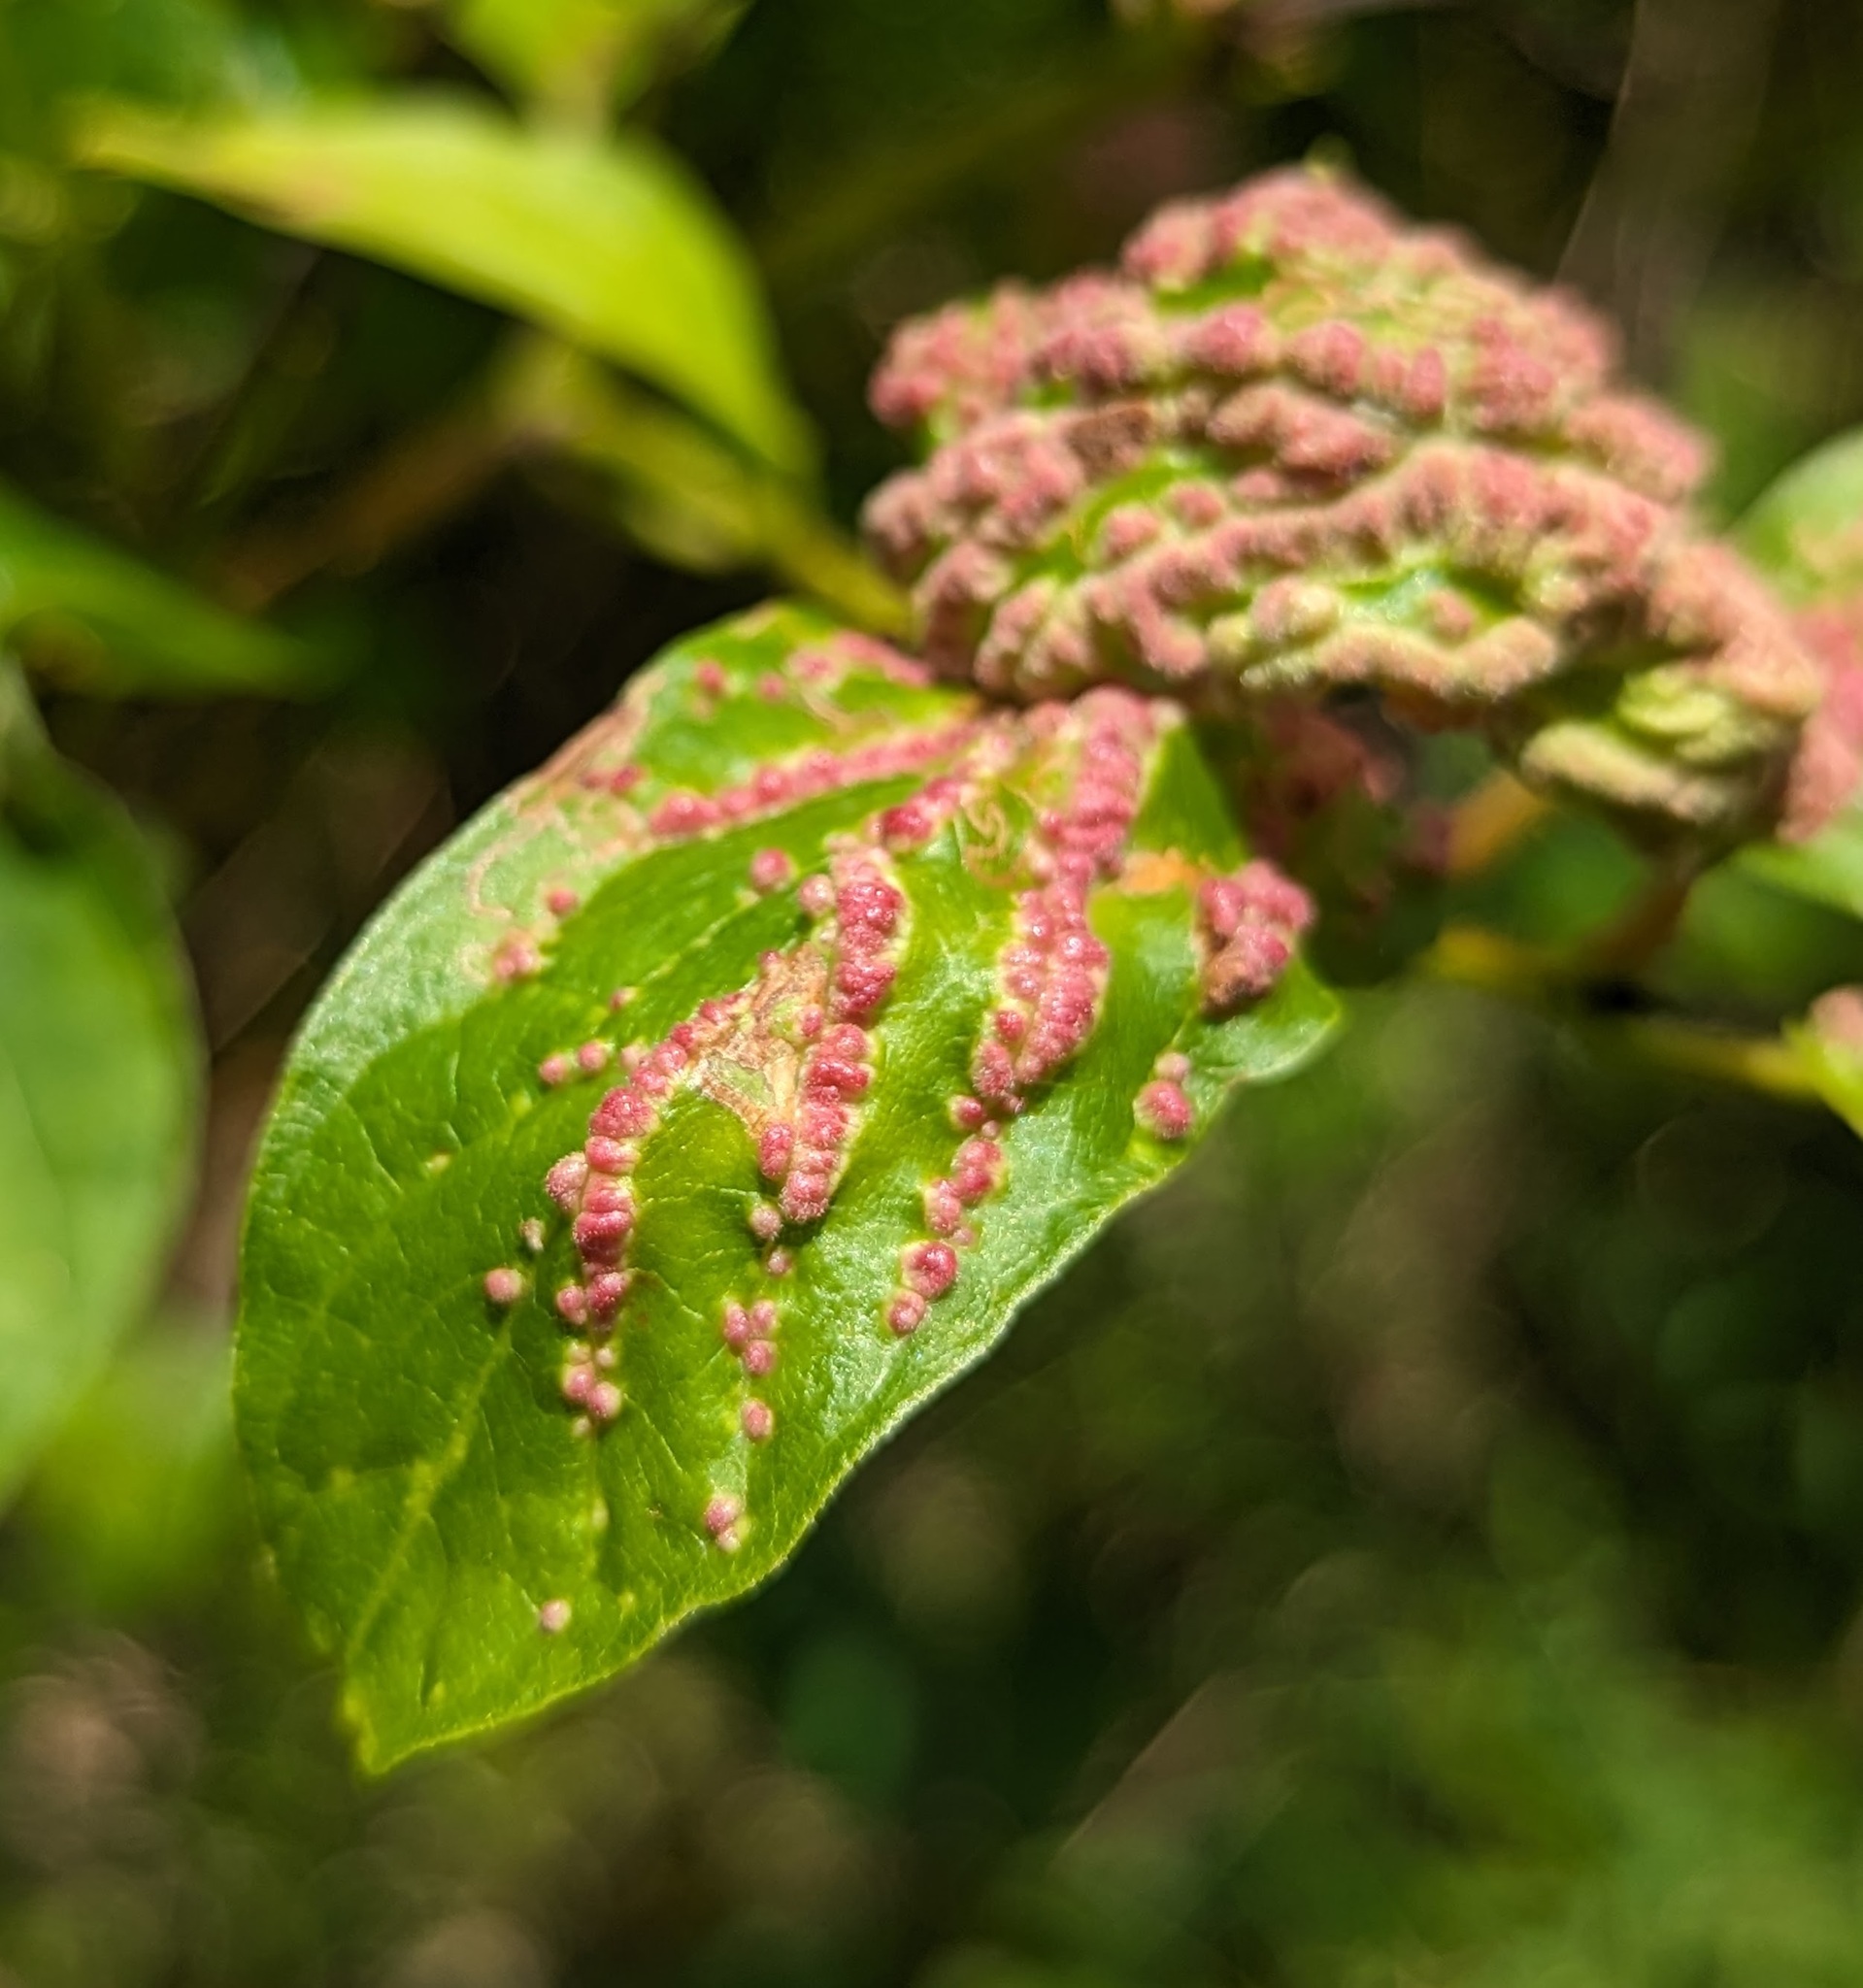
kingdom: Animalia
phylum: Arthropoda
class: Arachnida
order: Trombidiformes
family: Eriophyidae
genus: Aceria
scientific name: Aceria
